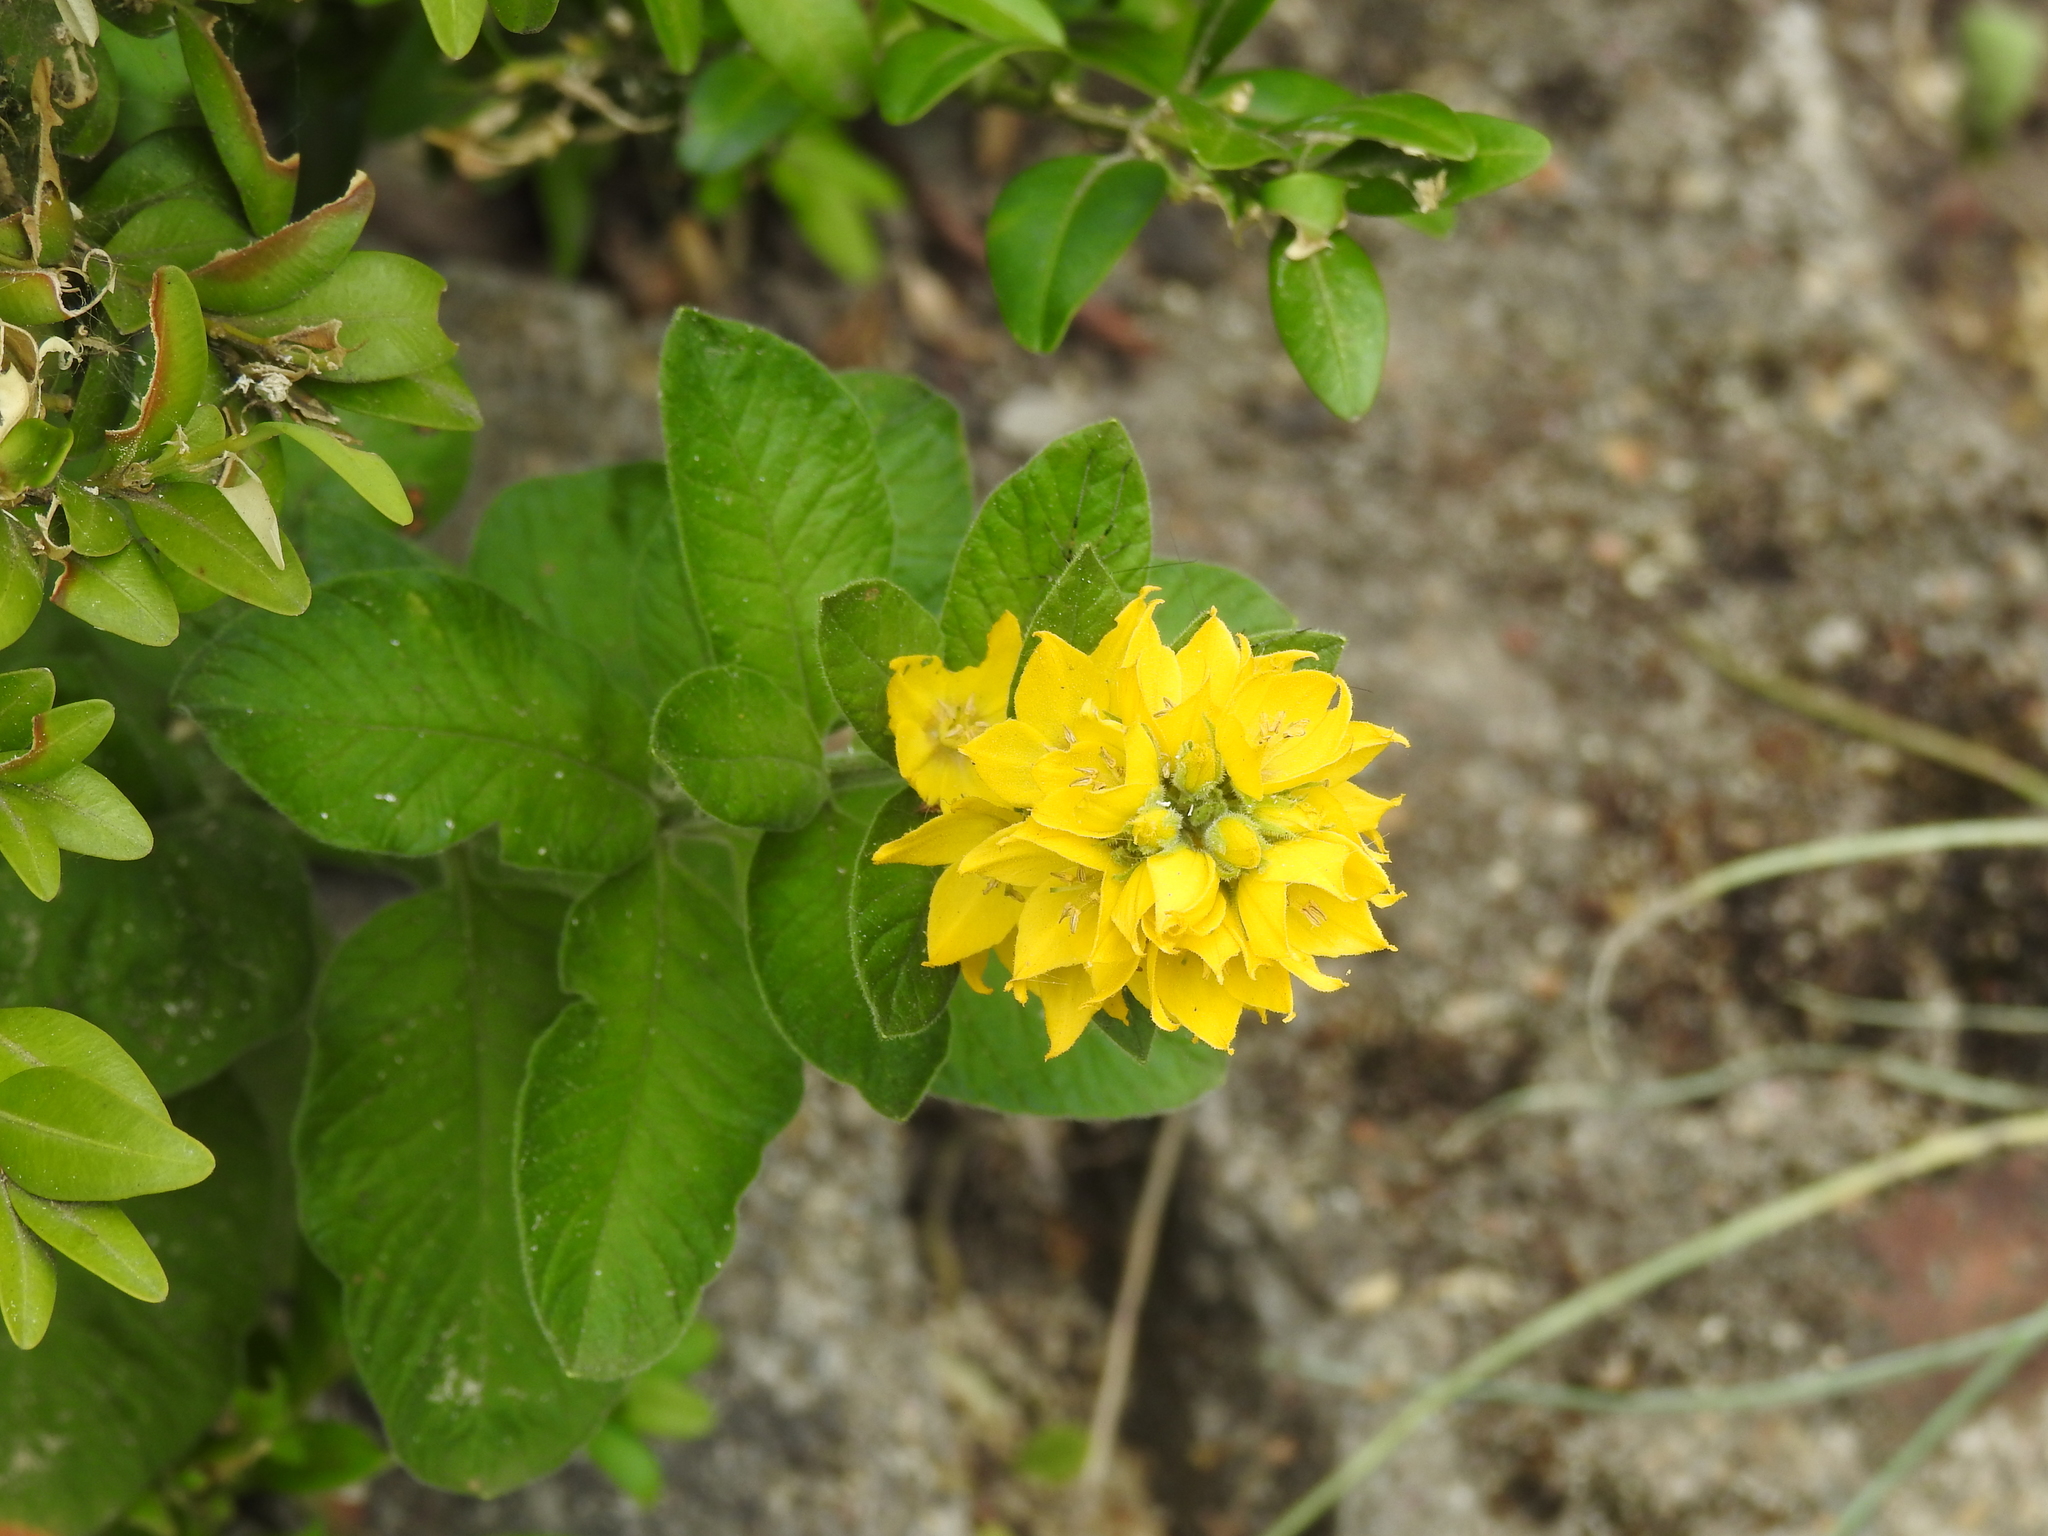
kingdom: Plantae
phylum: Tracheophyta
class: Magnoliopsida
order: Ericales
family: Primulaceae
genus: Lysimachia
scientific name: Lysimachia punctata
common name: Dotted loosestrife
